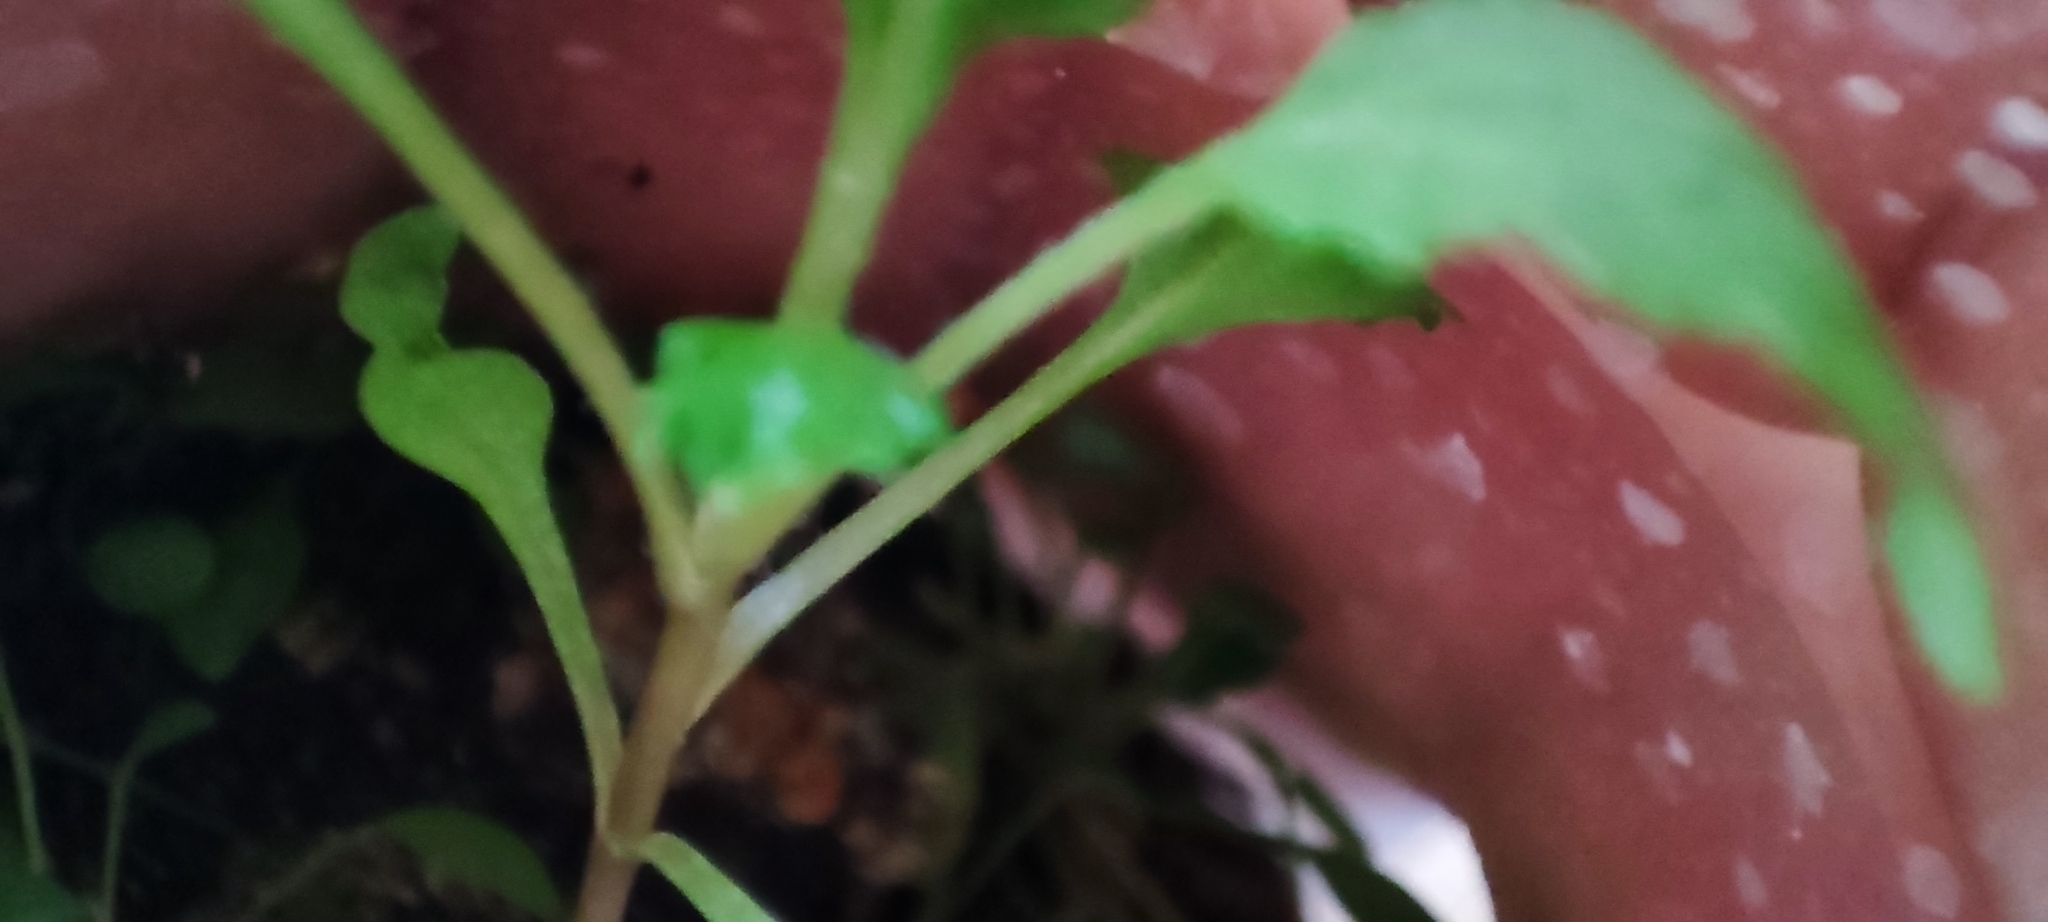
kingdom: Plantae
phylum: Tracheophyta
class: Magnoliopsida
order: Brassicales
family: Brassicaceae
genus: Lepidium
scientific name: Lepidium densiflorum
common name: Miner's pepperwort
